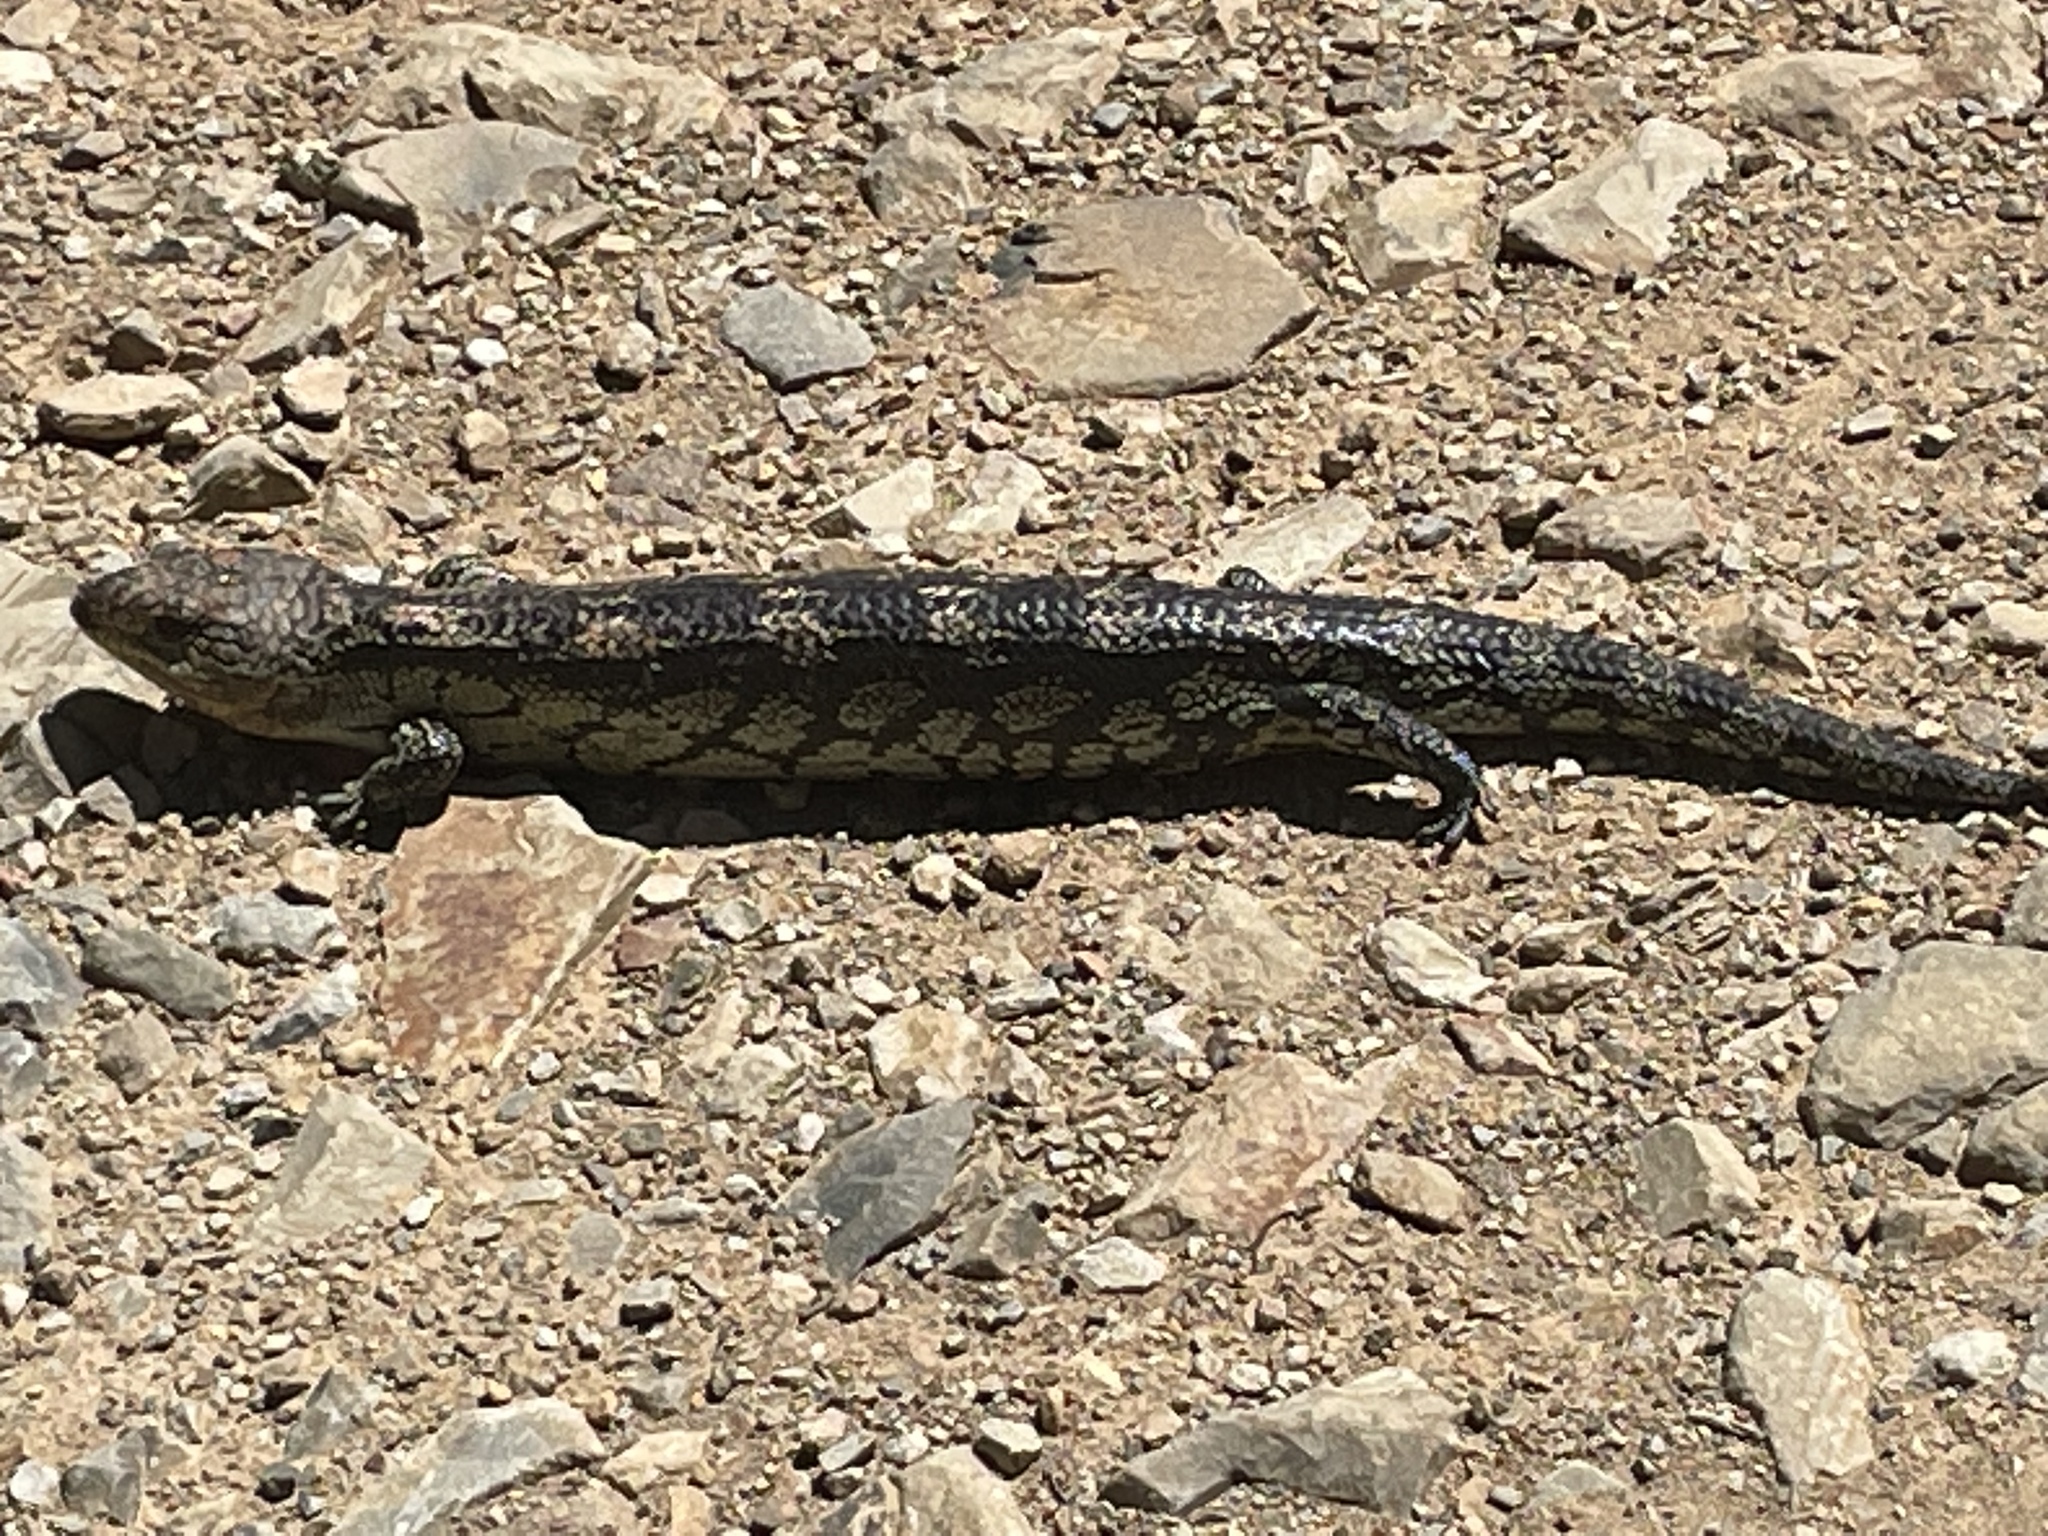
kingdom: Animalia
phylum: Chordata
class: Squamata
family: Scincidae
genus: Tiliqua
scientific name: Tiliqua nigrolutea
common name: Blotched blue-tongued lizard
